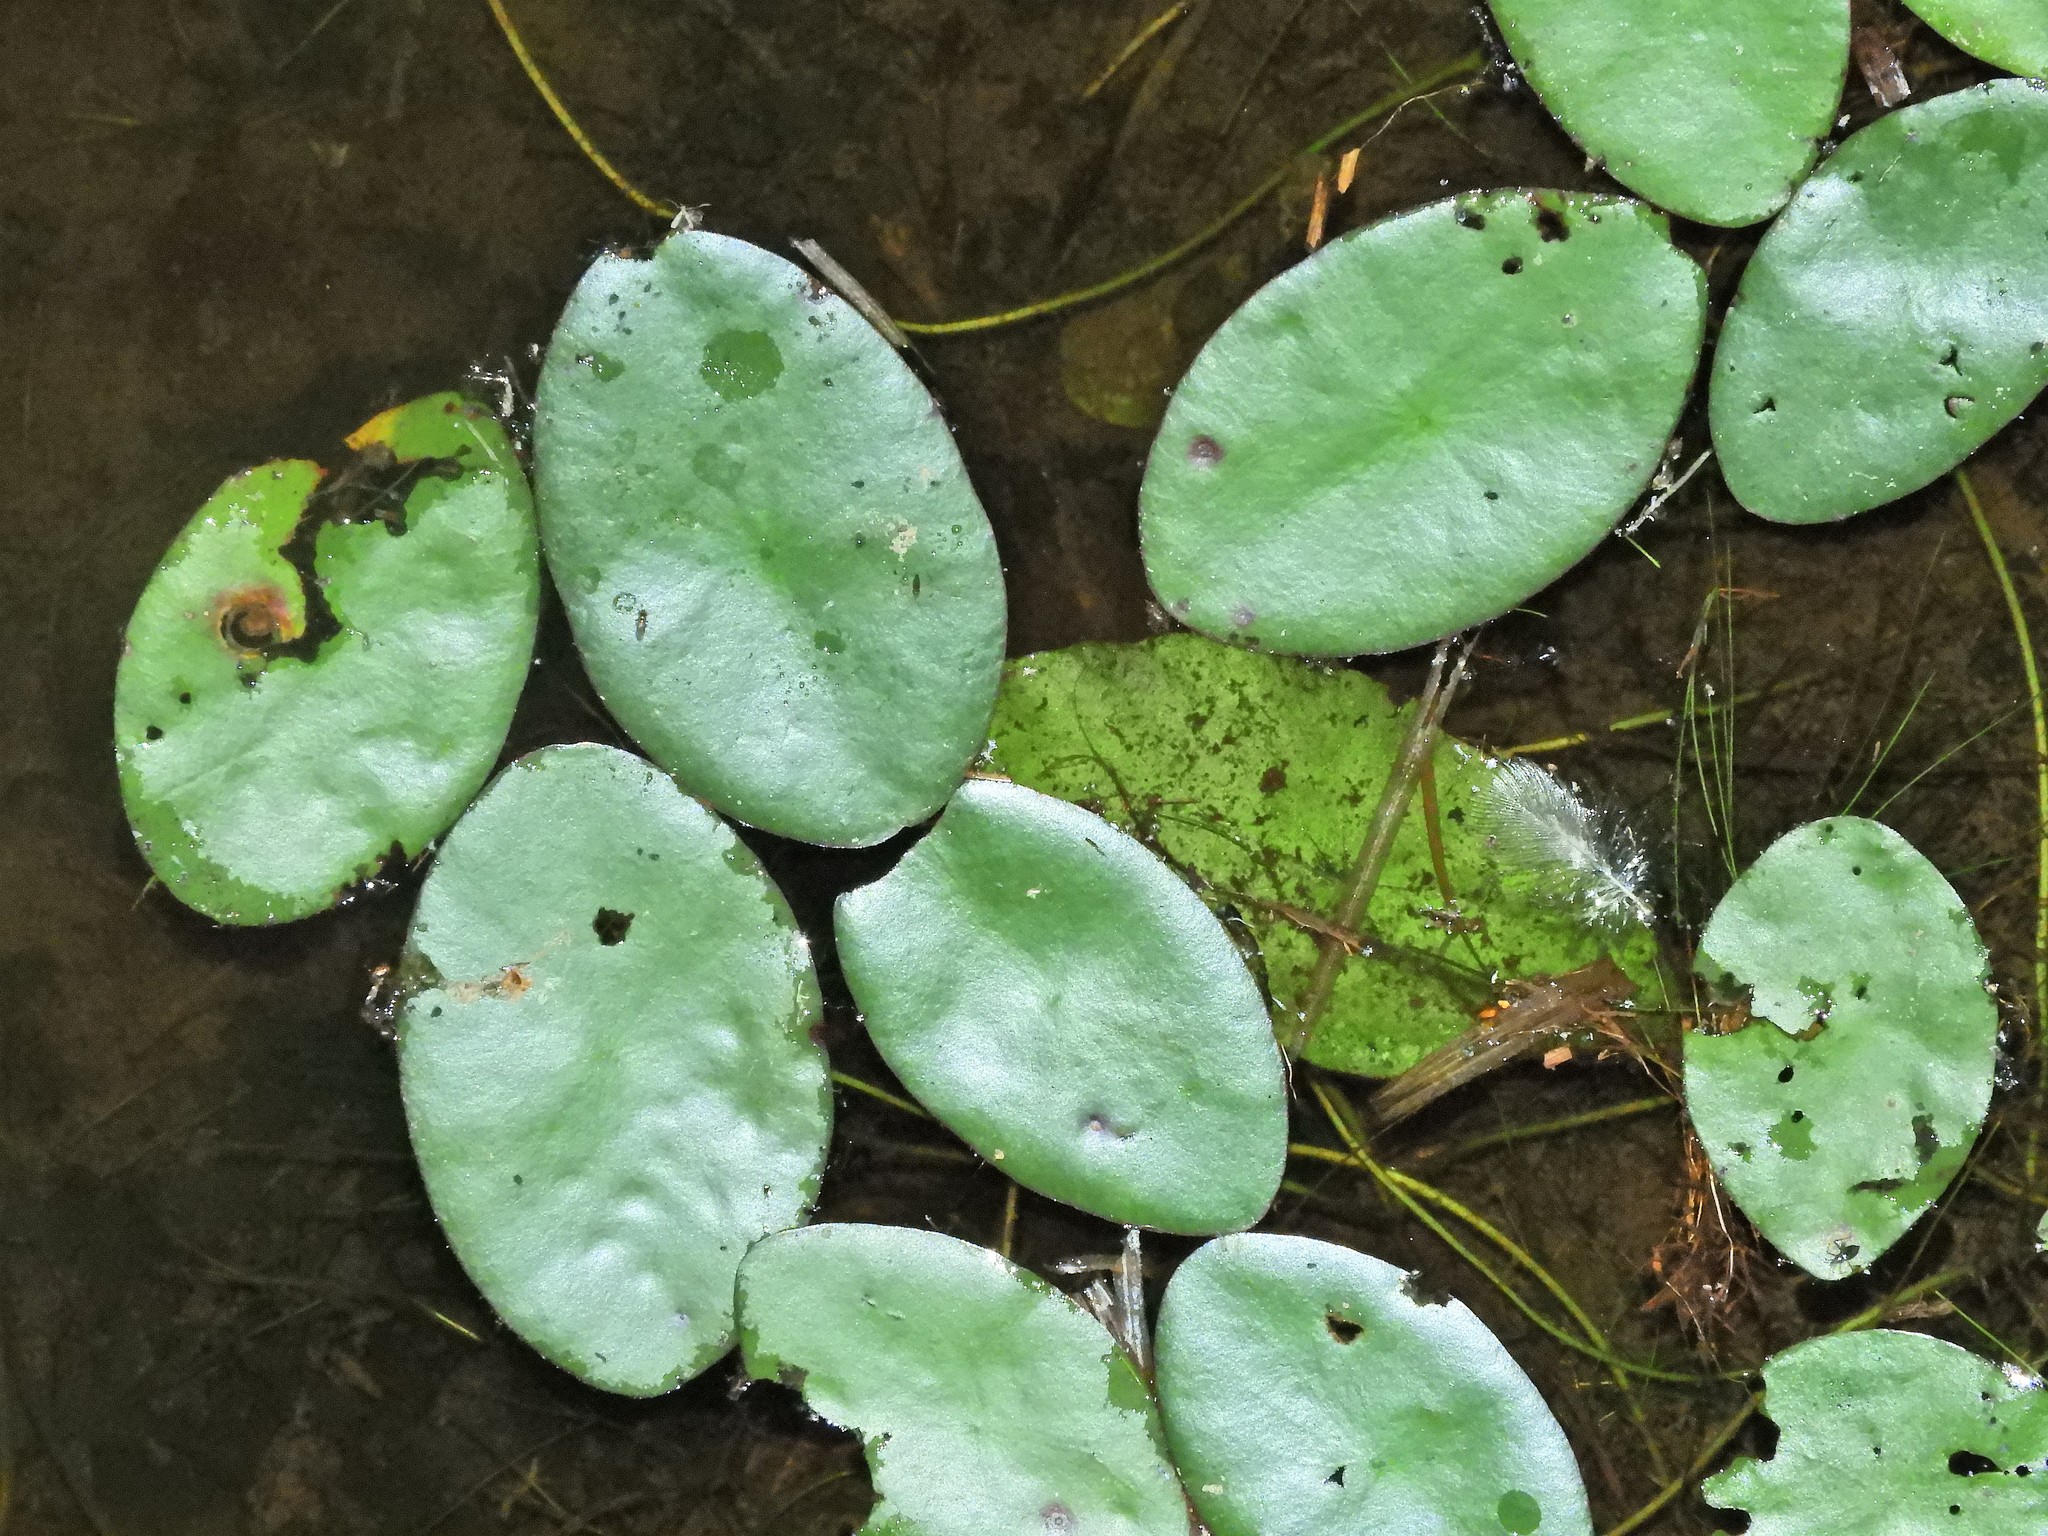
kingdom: Plantae
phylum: Tracheophyta
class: Magnoliopsida
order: Nymphaeales
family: Cabombaceae
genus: Brasenia
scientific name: Brasenia schreberi
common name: Water-shield
